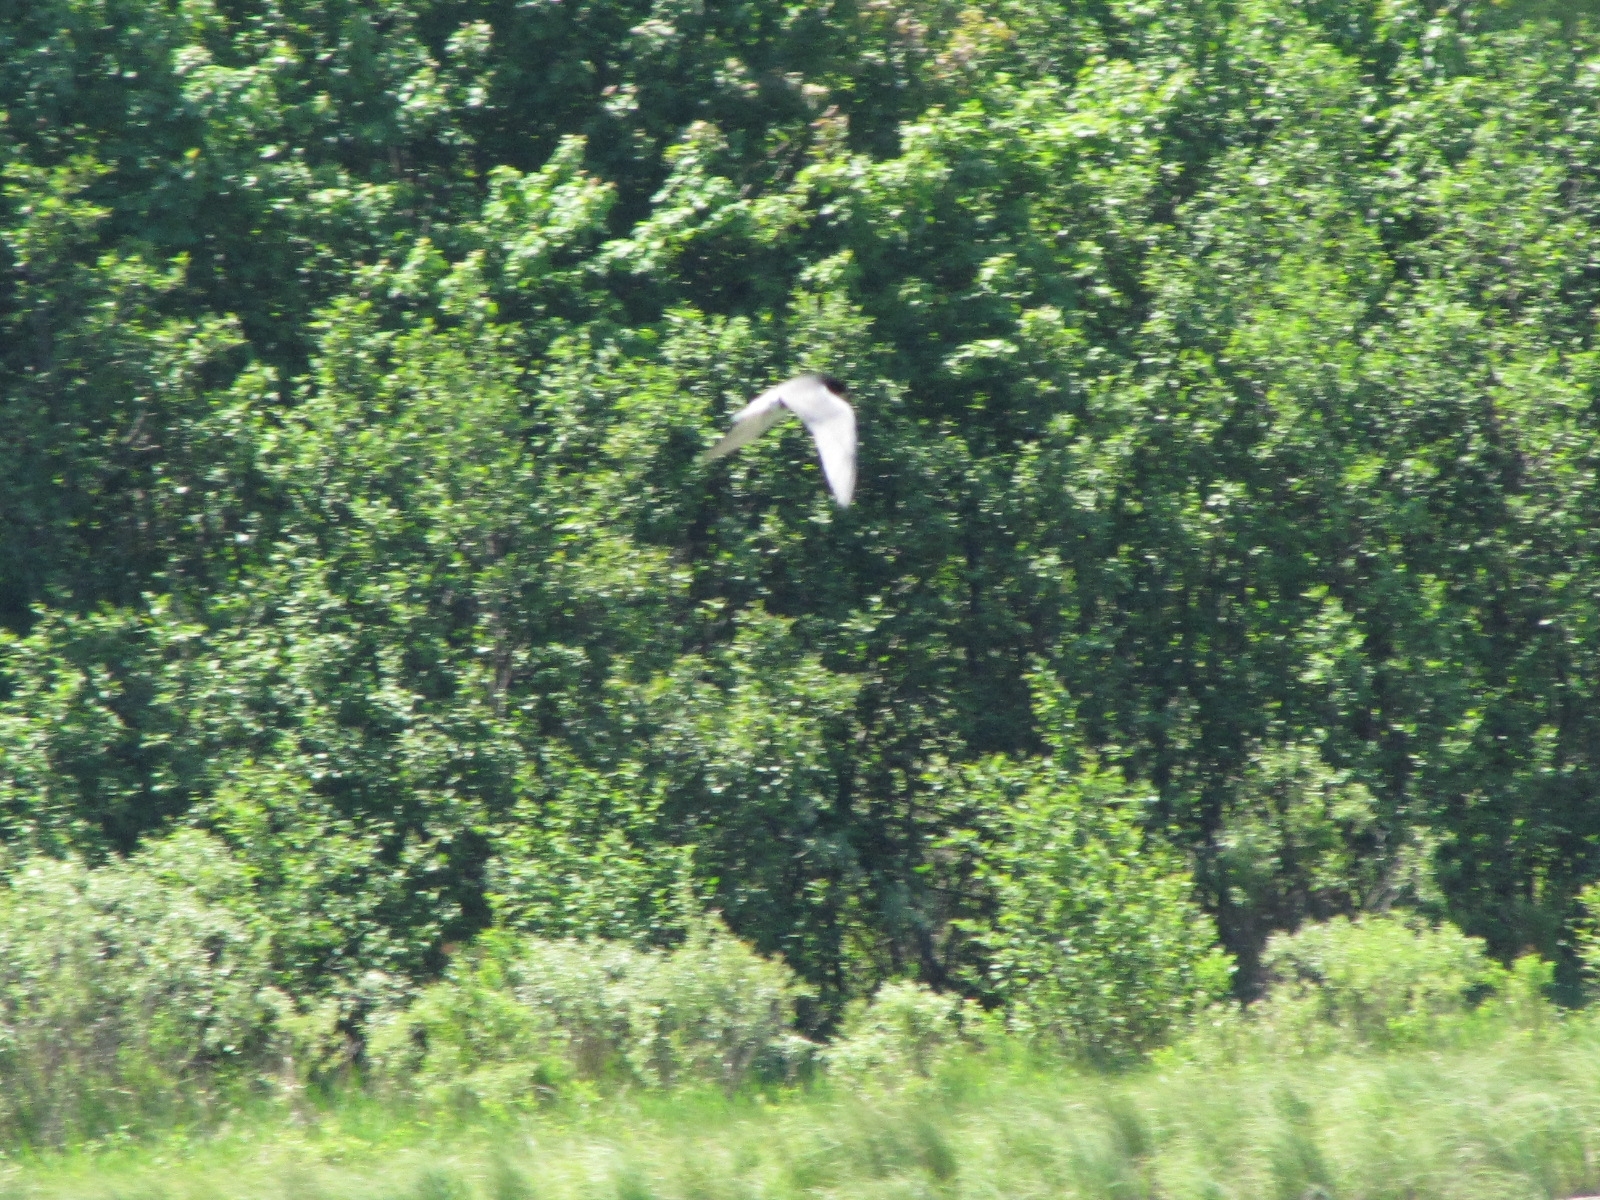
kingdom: Animalia
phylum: Chordata
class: Aves
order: Charadriiformes
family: Laridae
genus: Chlidonias
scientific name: Chlidonias niger
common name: Black tern
